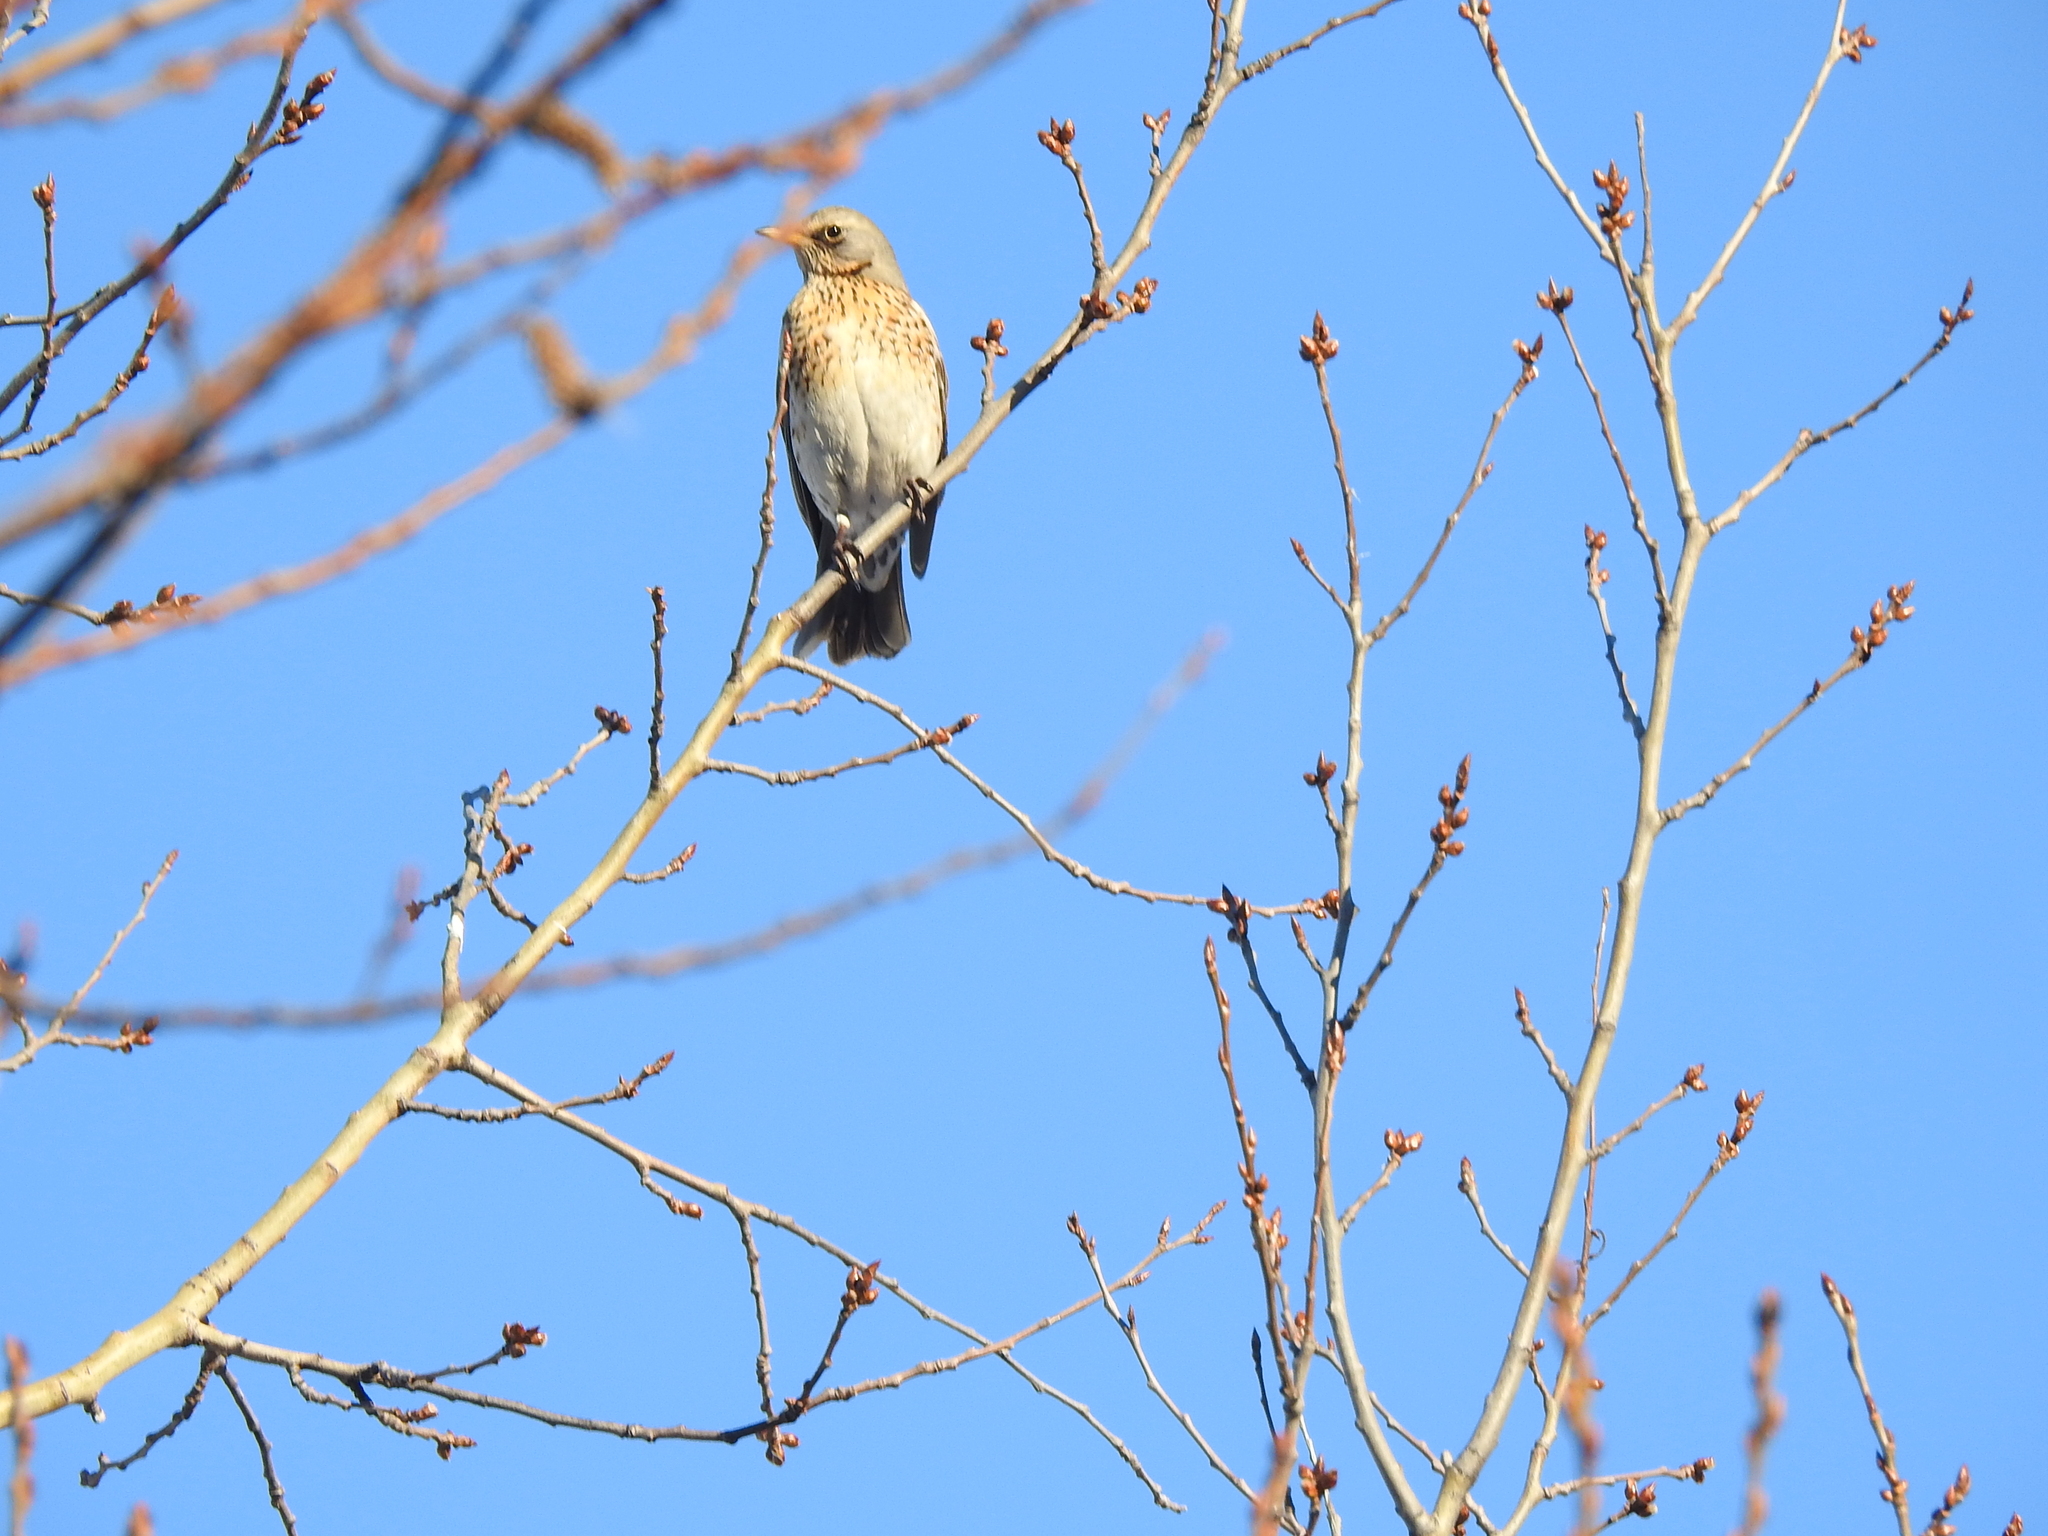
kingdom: Animalia
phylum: Chordata
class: Aves
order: Passeriformes
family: Turdidae
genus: Turdus
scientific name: Turdus pilaris
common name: Fieldfare
